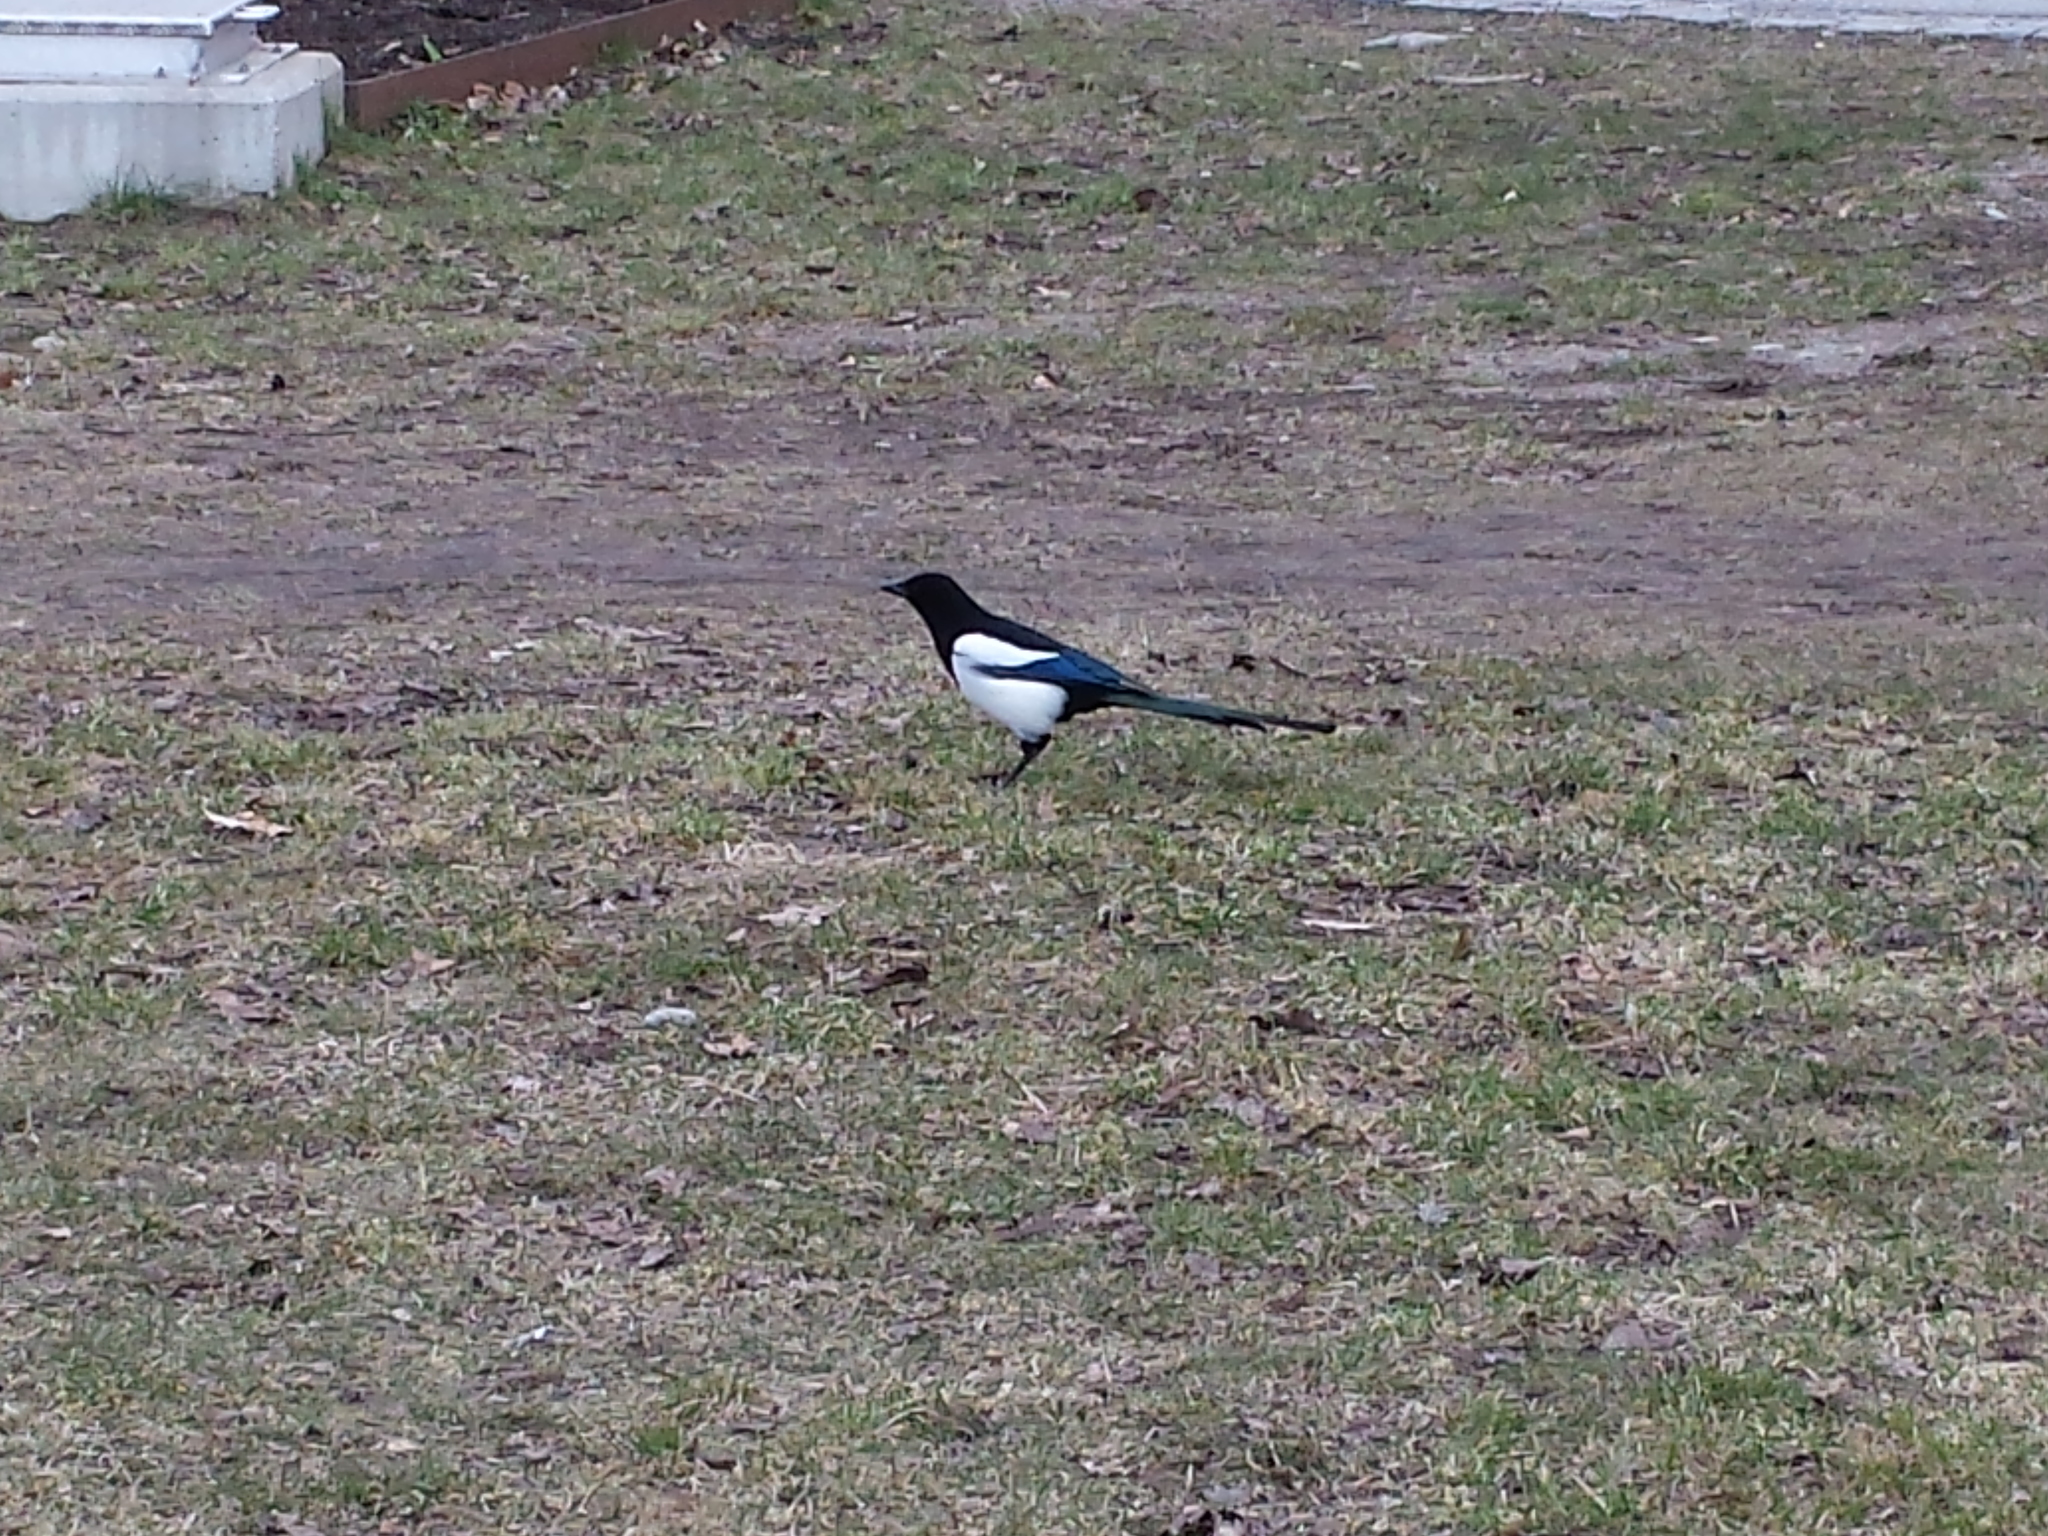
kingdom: Animalia
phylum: Chordata
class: Aves
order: Passeriformes
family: Corvidae
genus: Pica
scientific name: Pica pica
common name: Eurasian magpie
